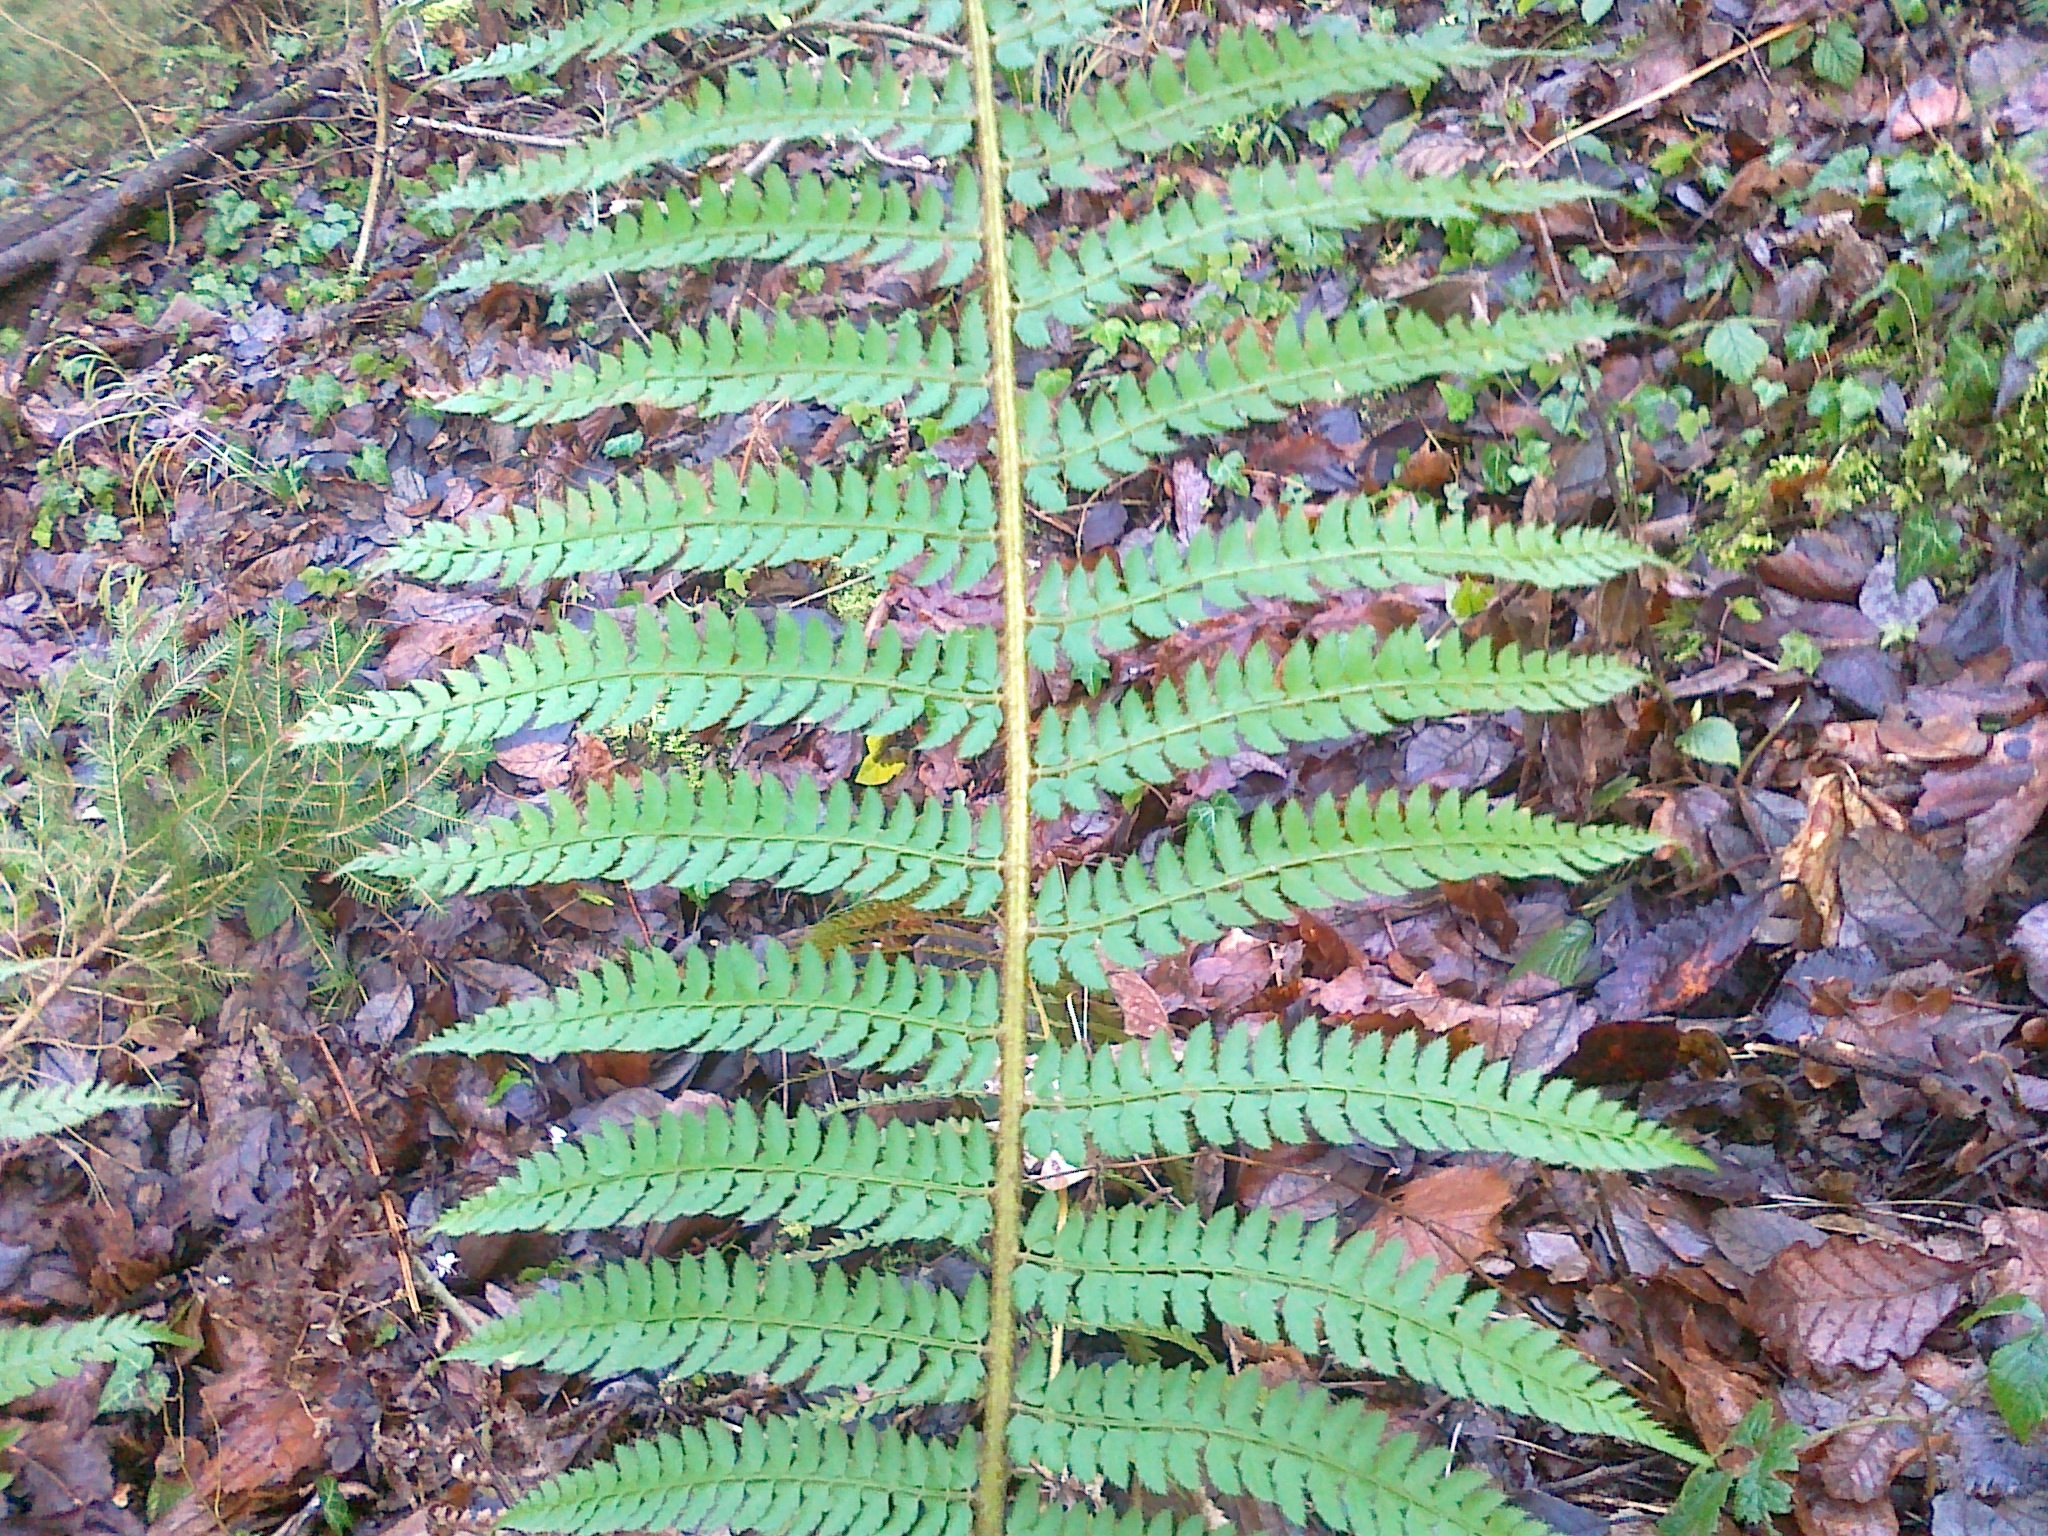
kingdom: Plantae
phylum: Tracheophyta
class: Polypodiopsida
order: Polypodiales
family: Dryopteridaceae
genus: Polystichum
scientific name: Polystichum setiferum
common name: Soft shield-fern
